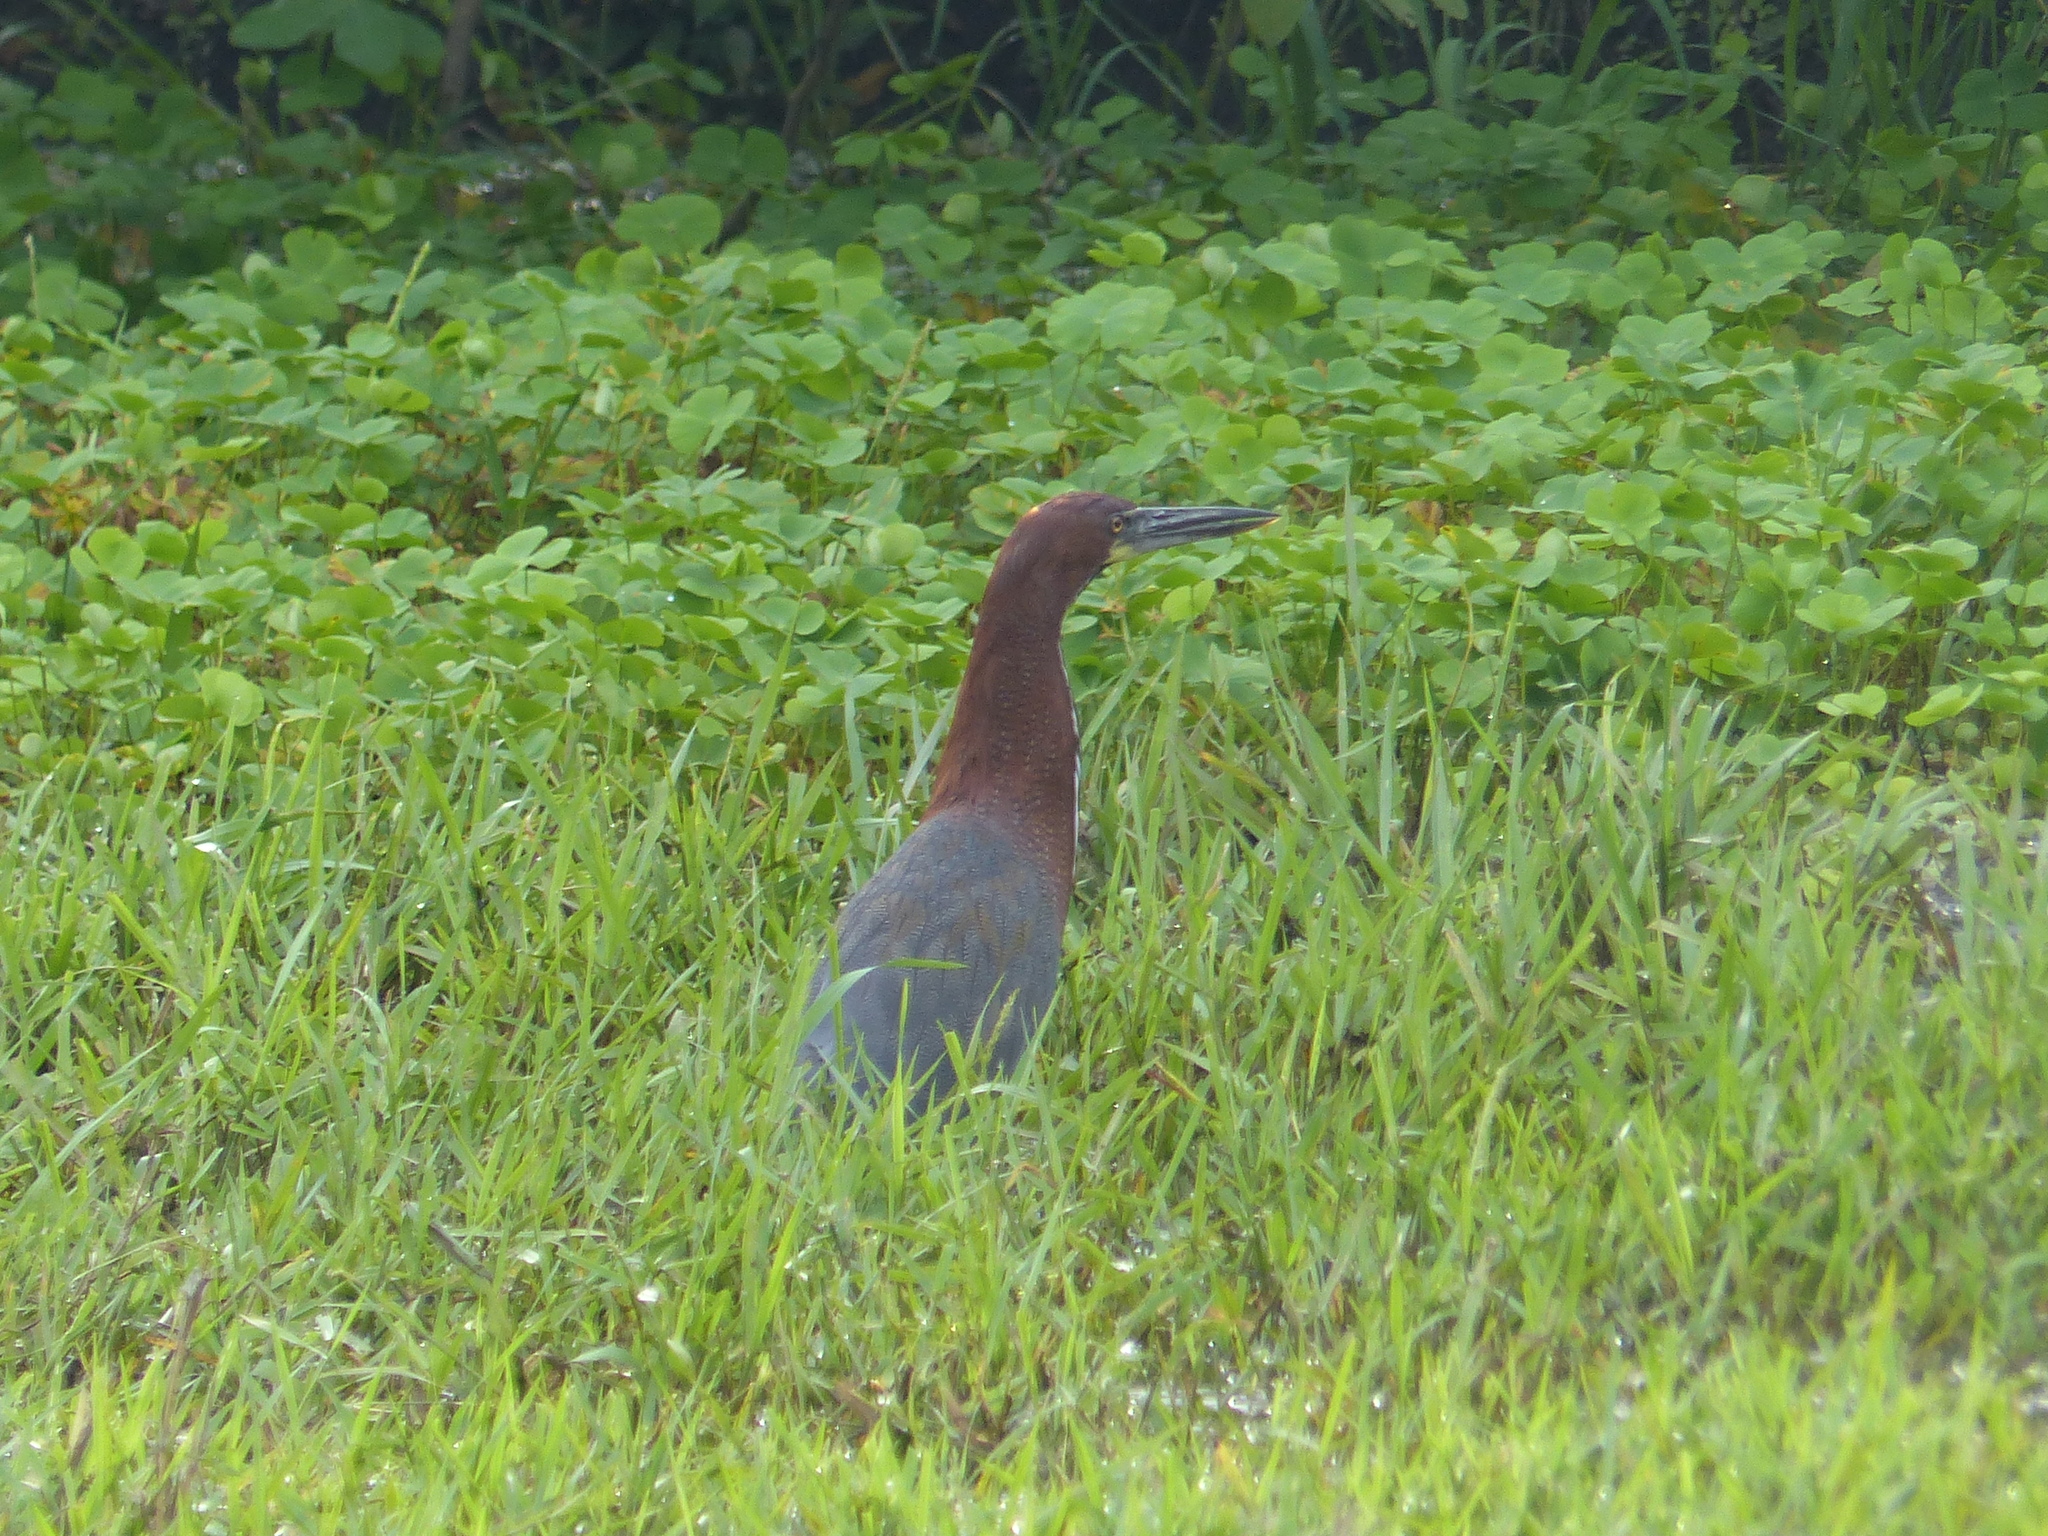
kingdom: Animalia
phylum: Chordata
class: Aves
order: Pelecaniformes
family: Ardeidae
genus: Tigrisoma
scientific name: Tigrisoma lineatum
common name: Rufescent tiger-heron
